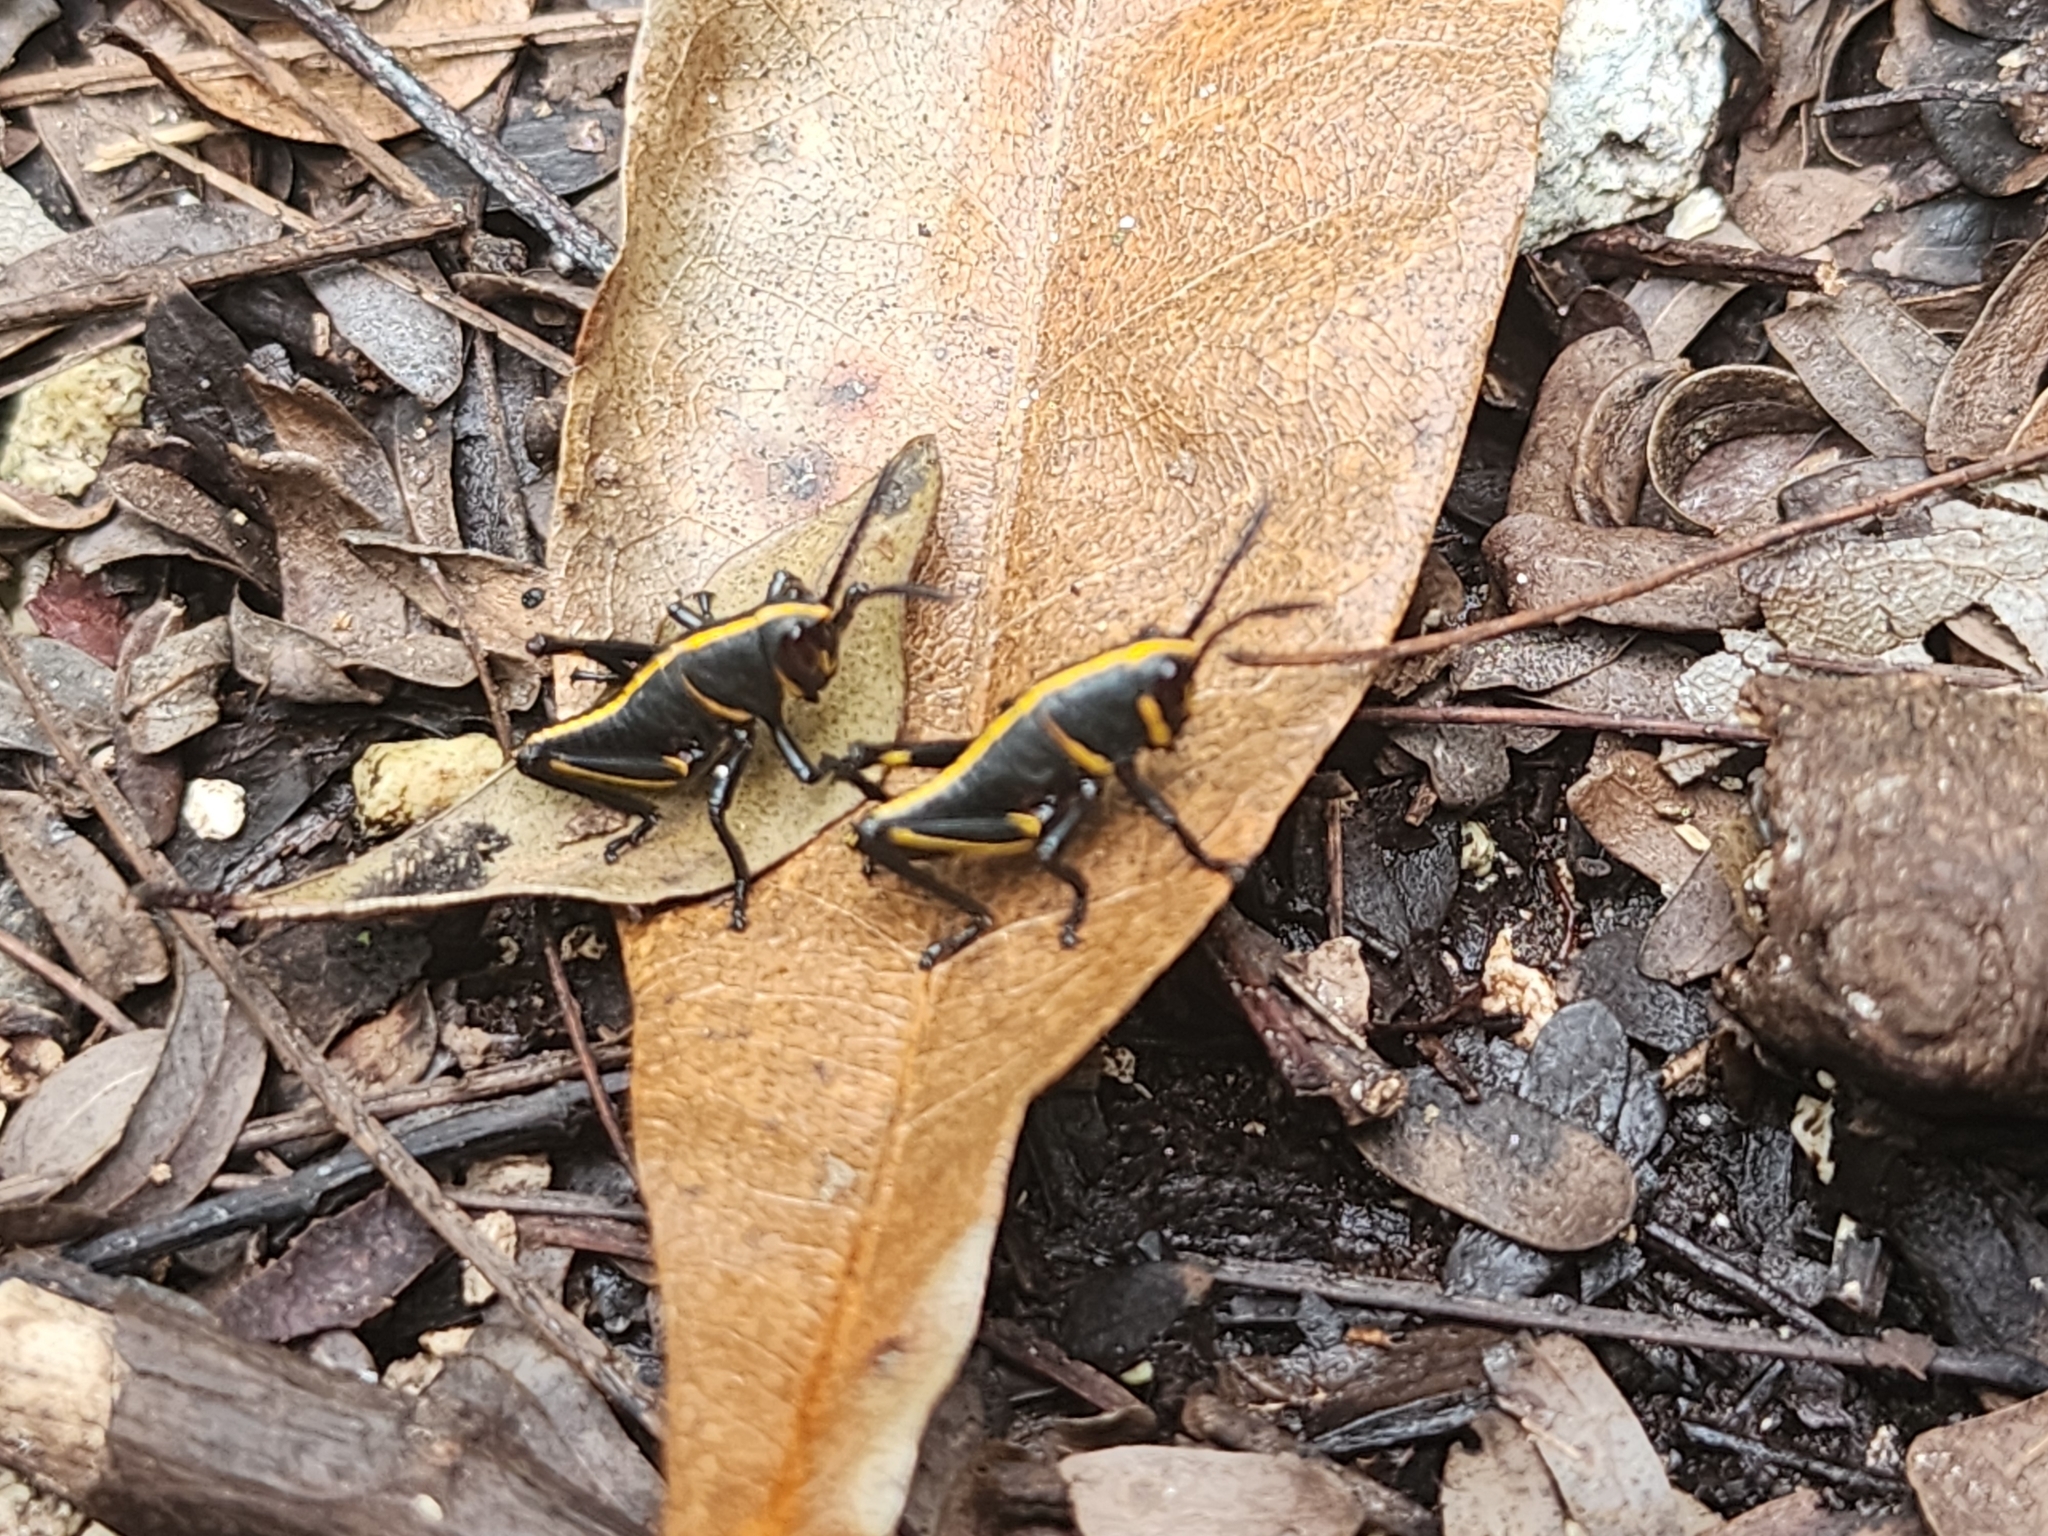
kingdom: Animalia
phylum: Arthropoda
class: Insecta
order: Orthoptera
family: Romaleidae
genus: Romalea
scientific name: Romalea microptera
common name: Eastern lubber grasshopper
